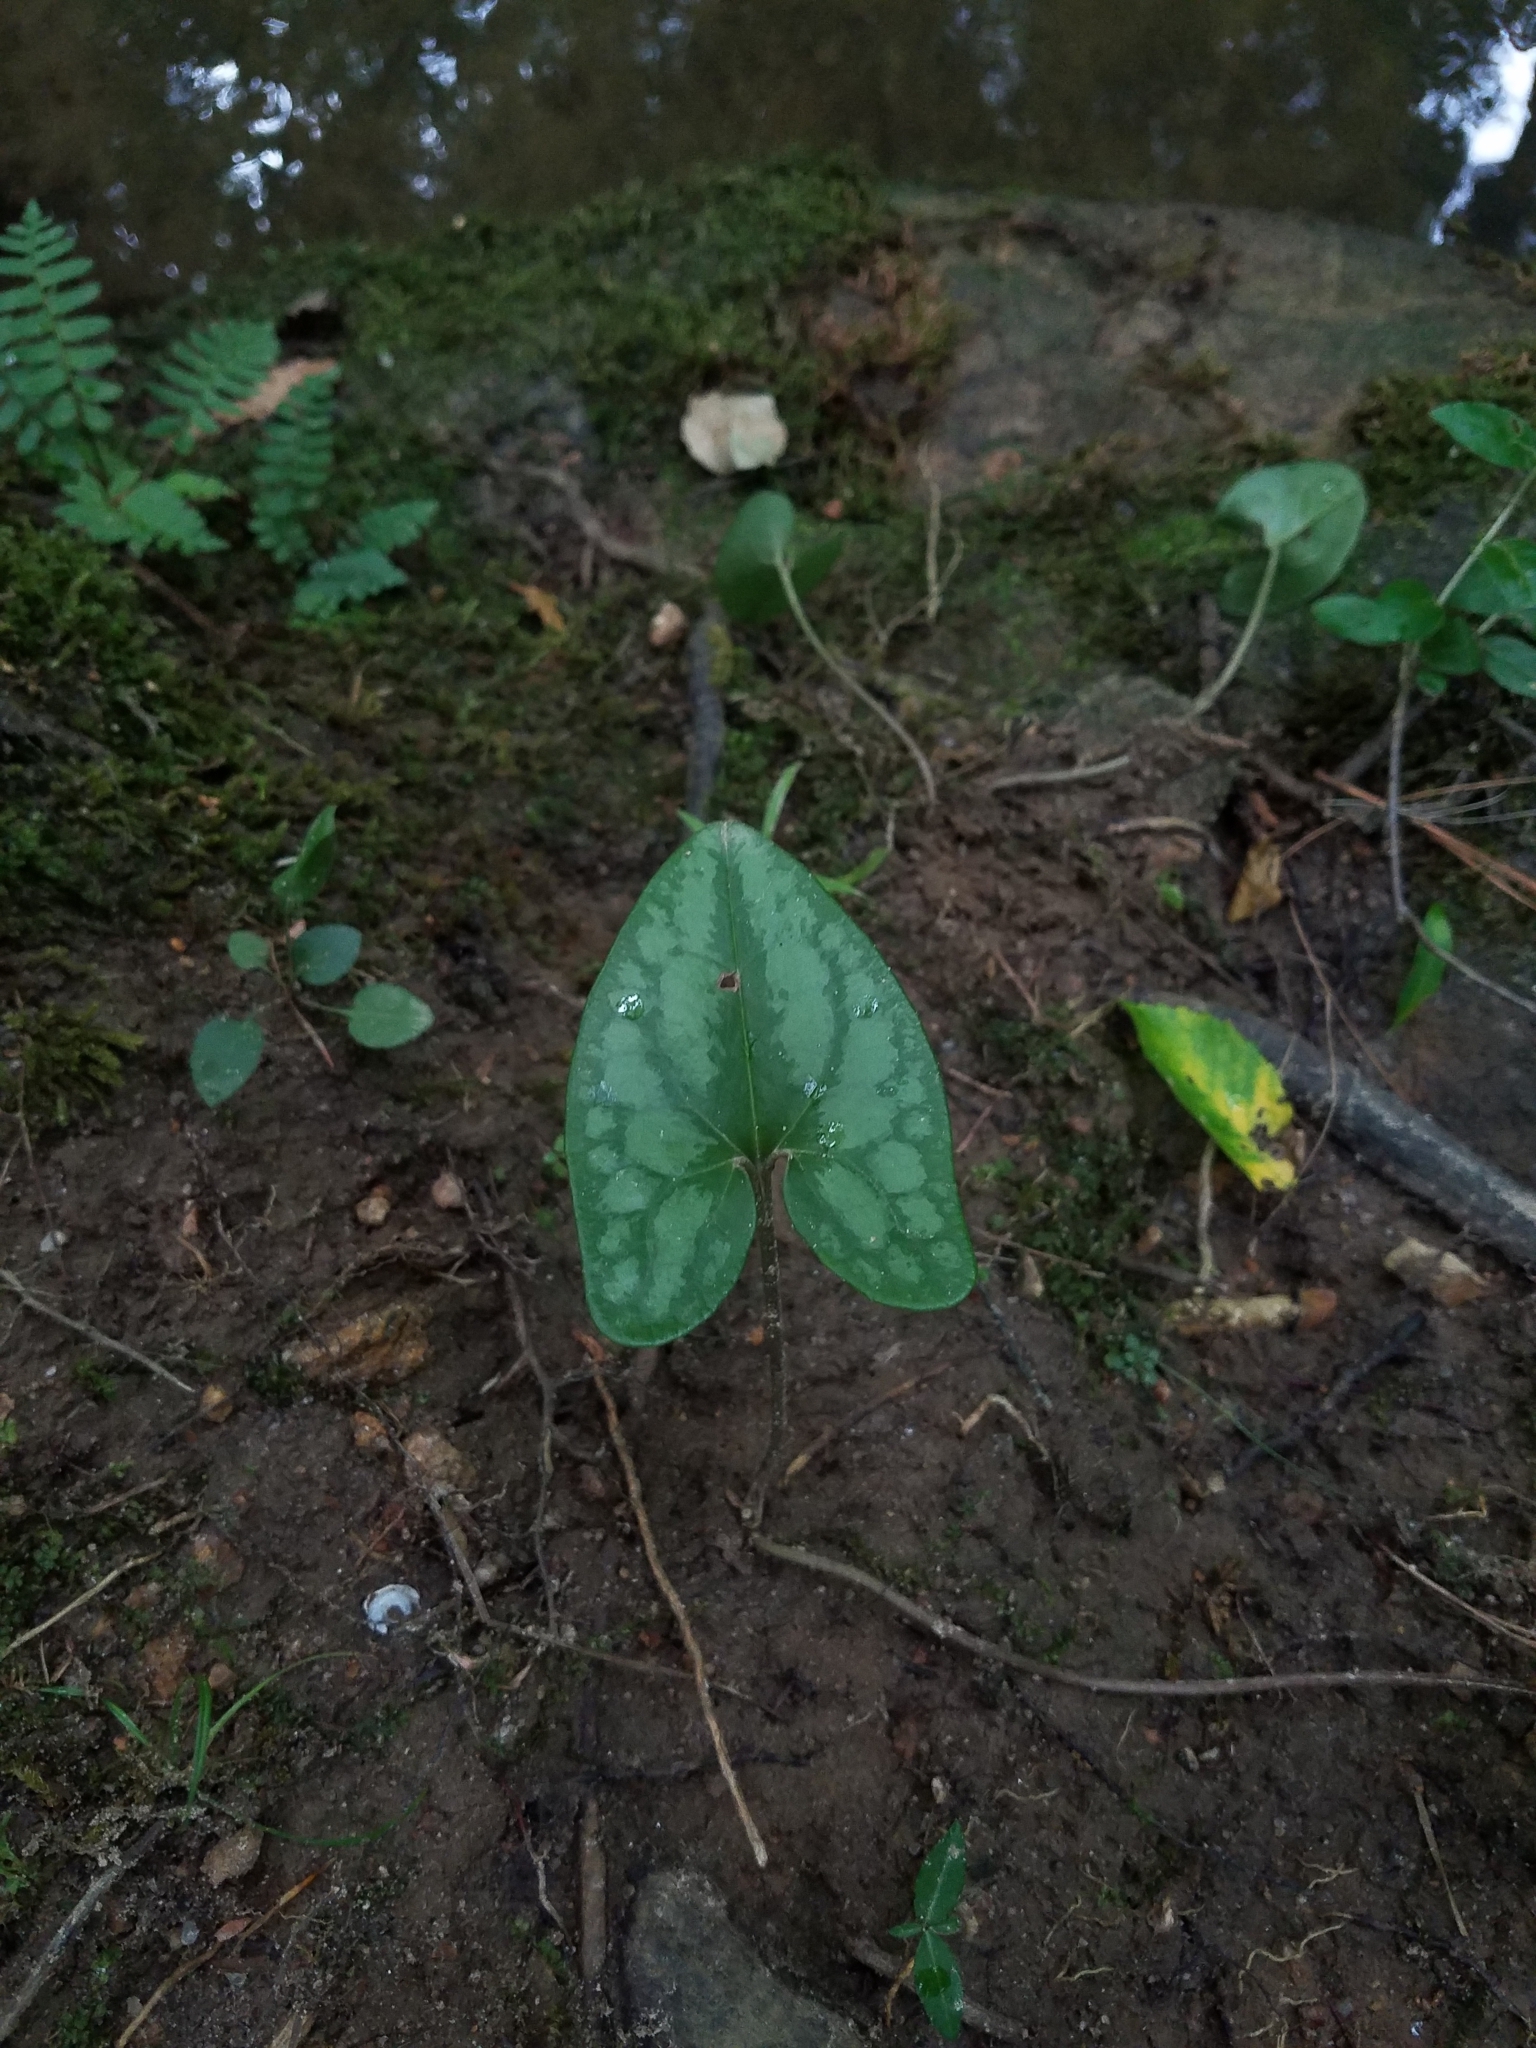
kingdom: Plantae
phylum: Tracheophyta
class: Magnoliopsida
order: Piperales
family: Aristolochiaceae
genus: Hexastylis
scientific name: Hexastylis arifolia
